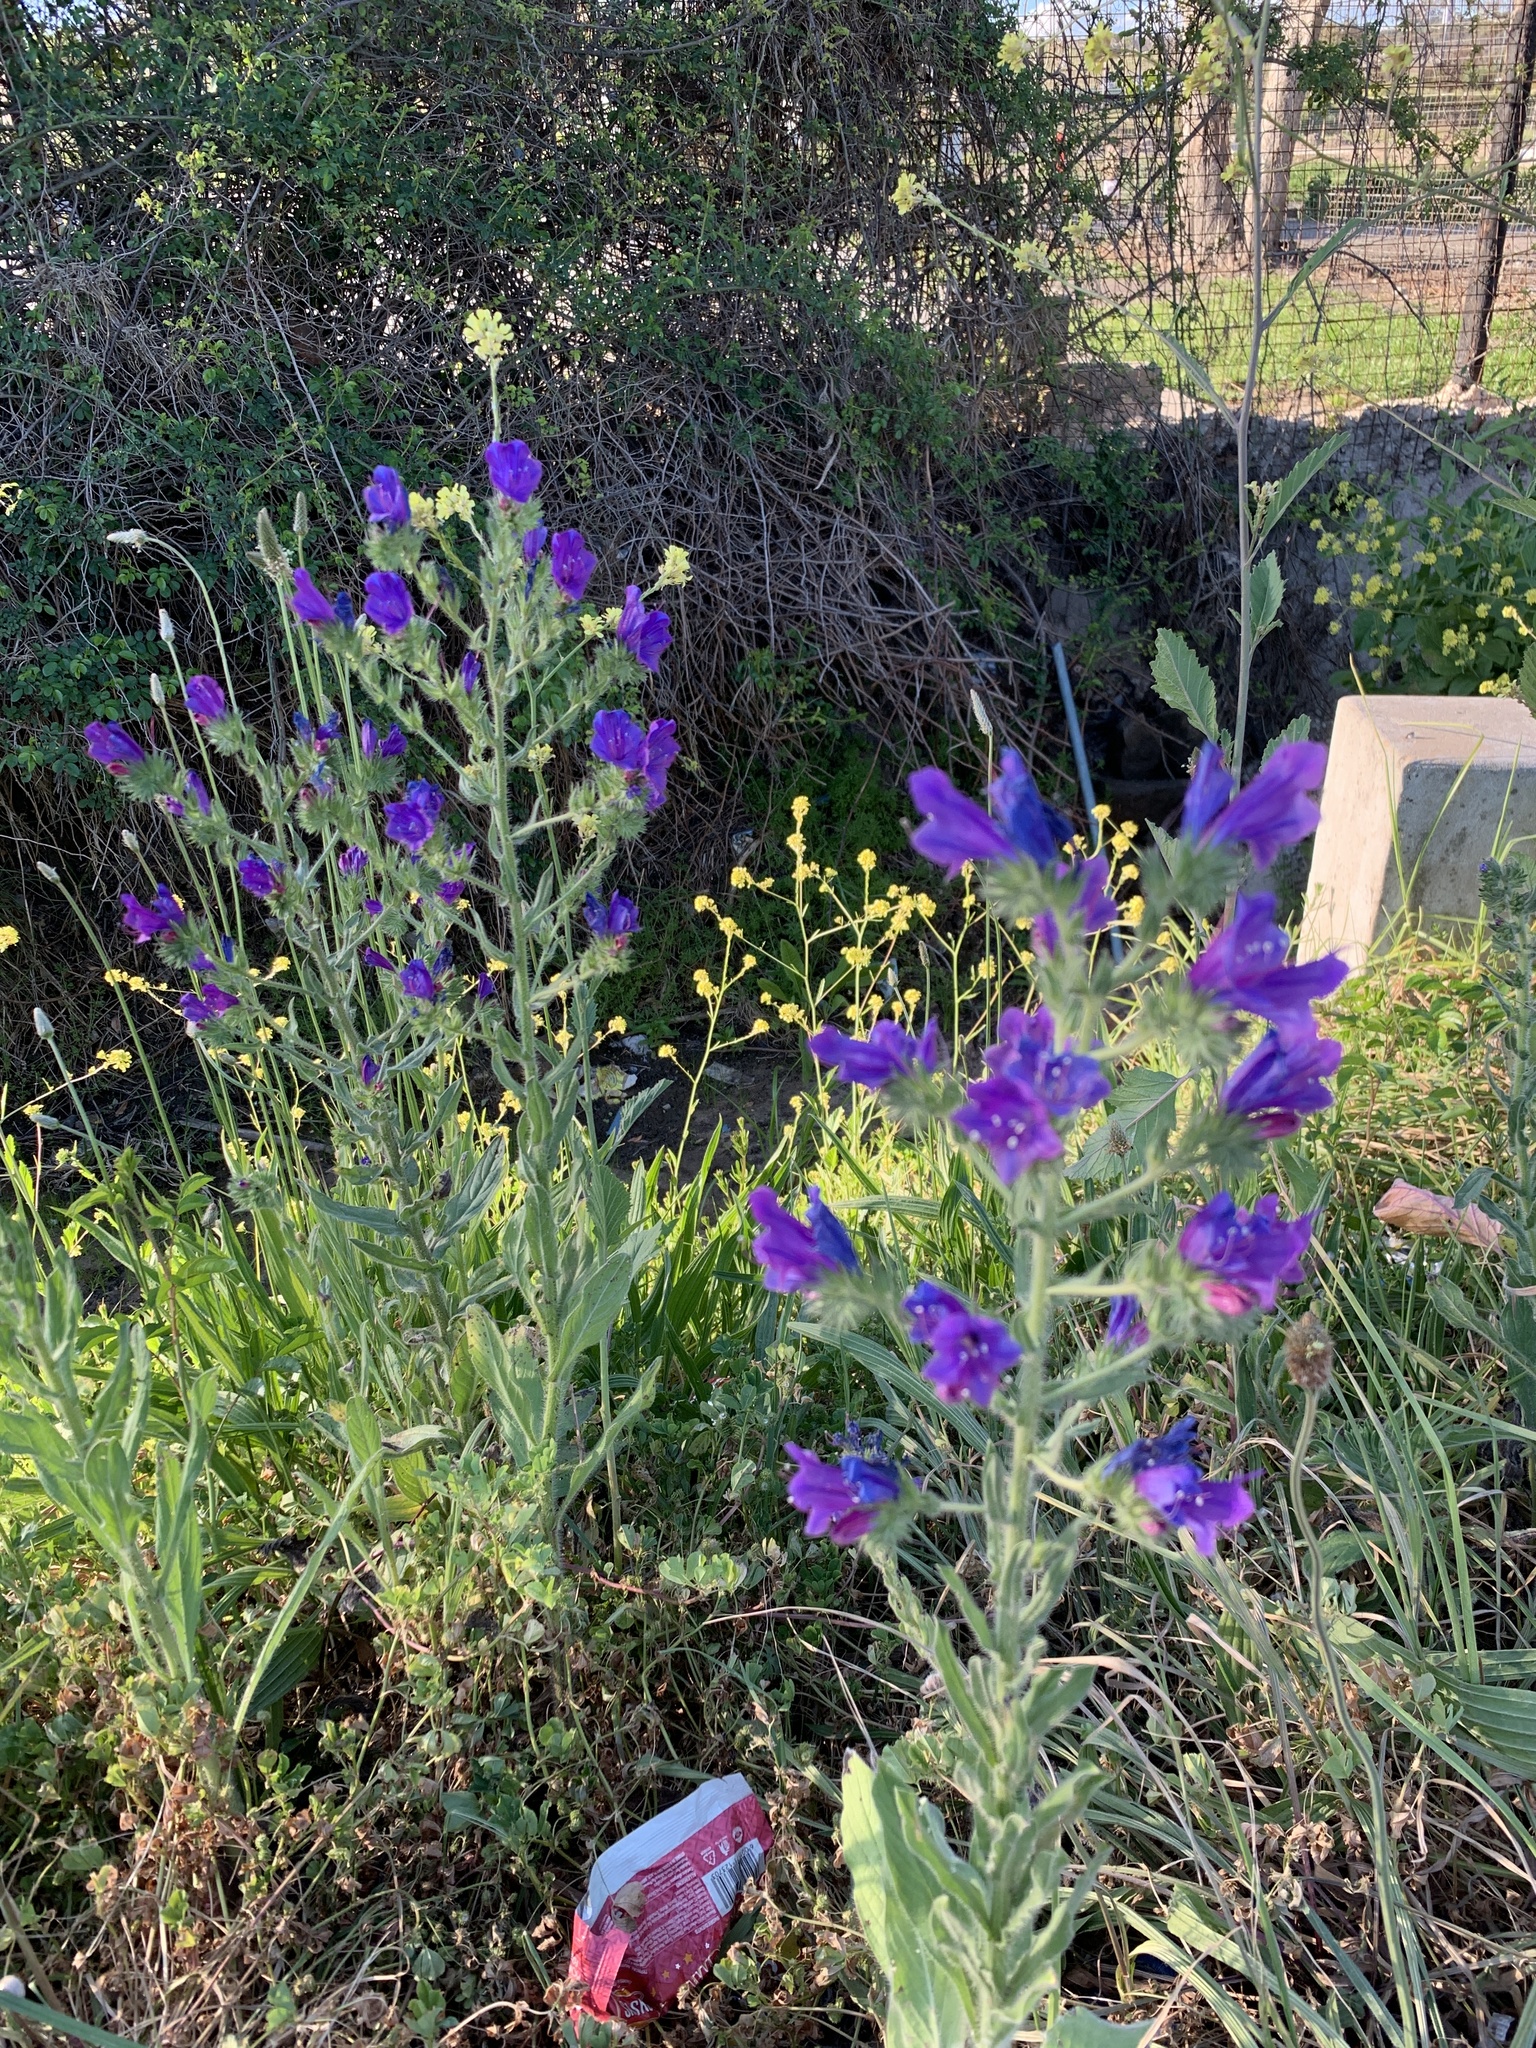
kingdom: Plantae
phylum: Tracheophyta
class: Magnoliopsida
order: Boraginales
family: Boraginaceae
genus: Echium
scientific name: Echium plantagineum
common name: Purple viper's-bugloss
